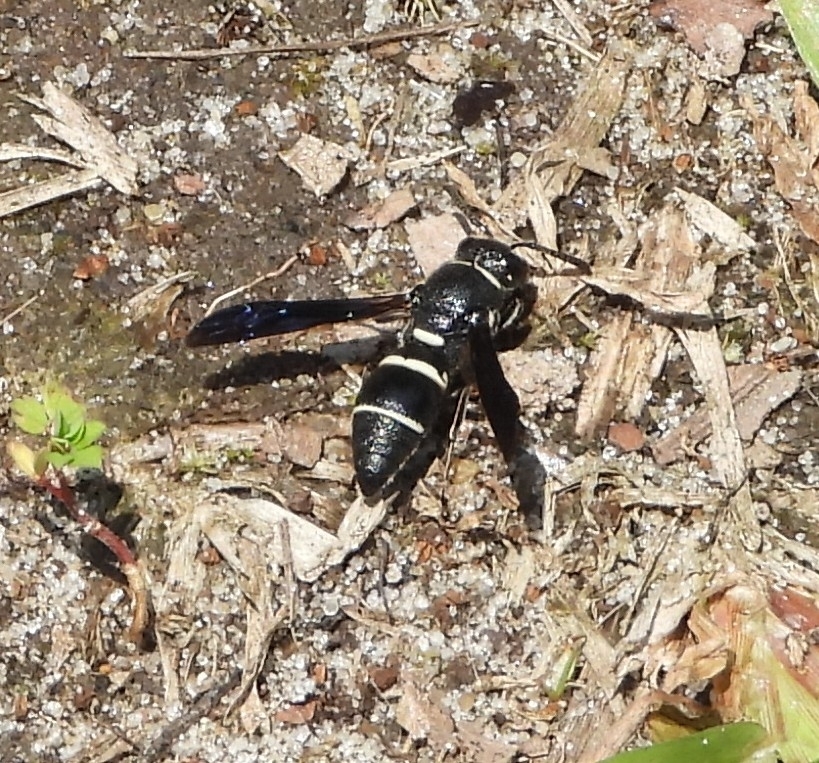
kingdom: Animalia
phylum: Arthropoda
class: Insecta
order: Hymenoptera
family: Eumenidae
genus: Euodynerus
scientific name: Euodynerus megaera
